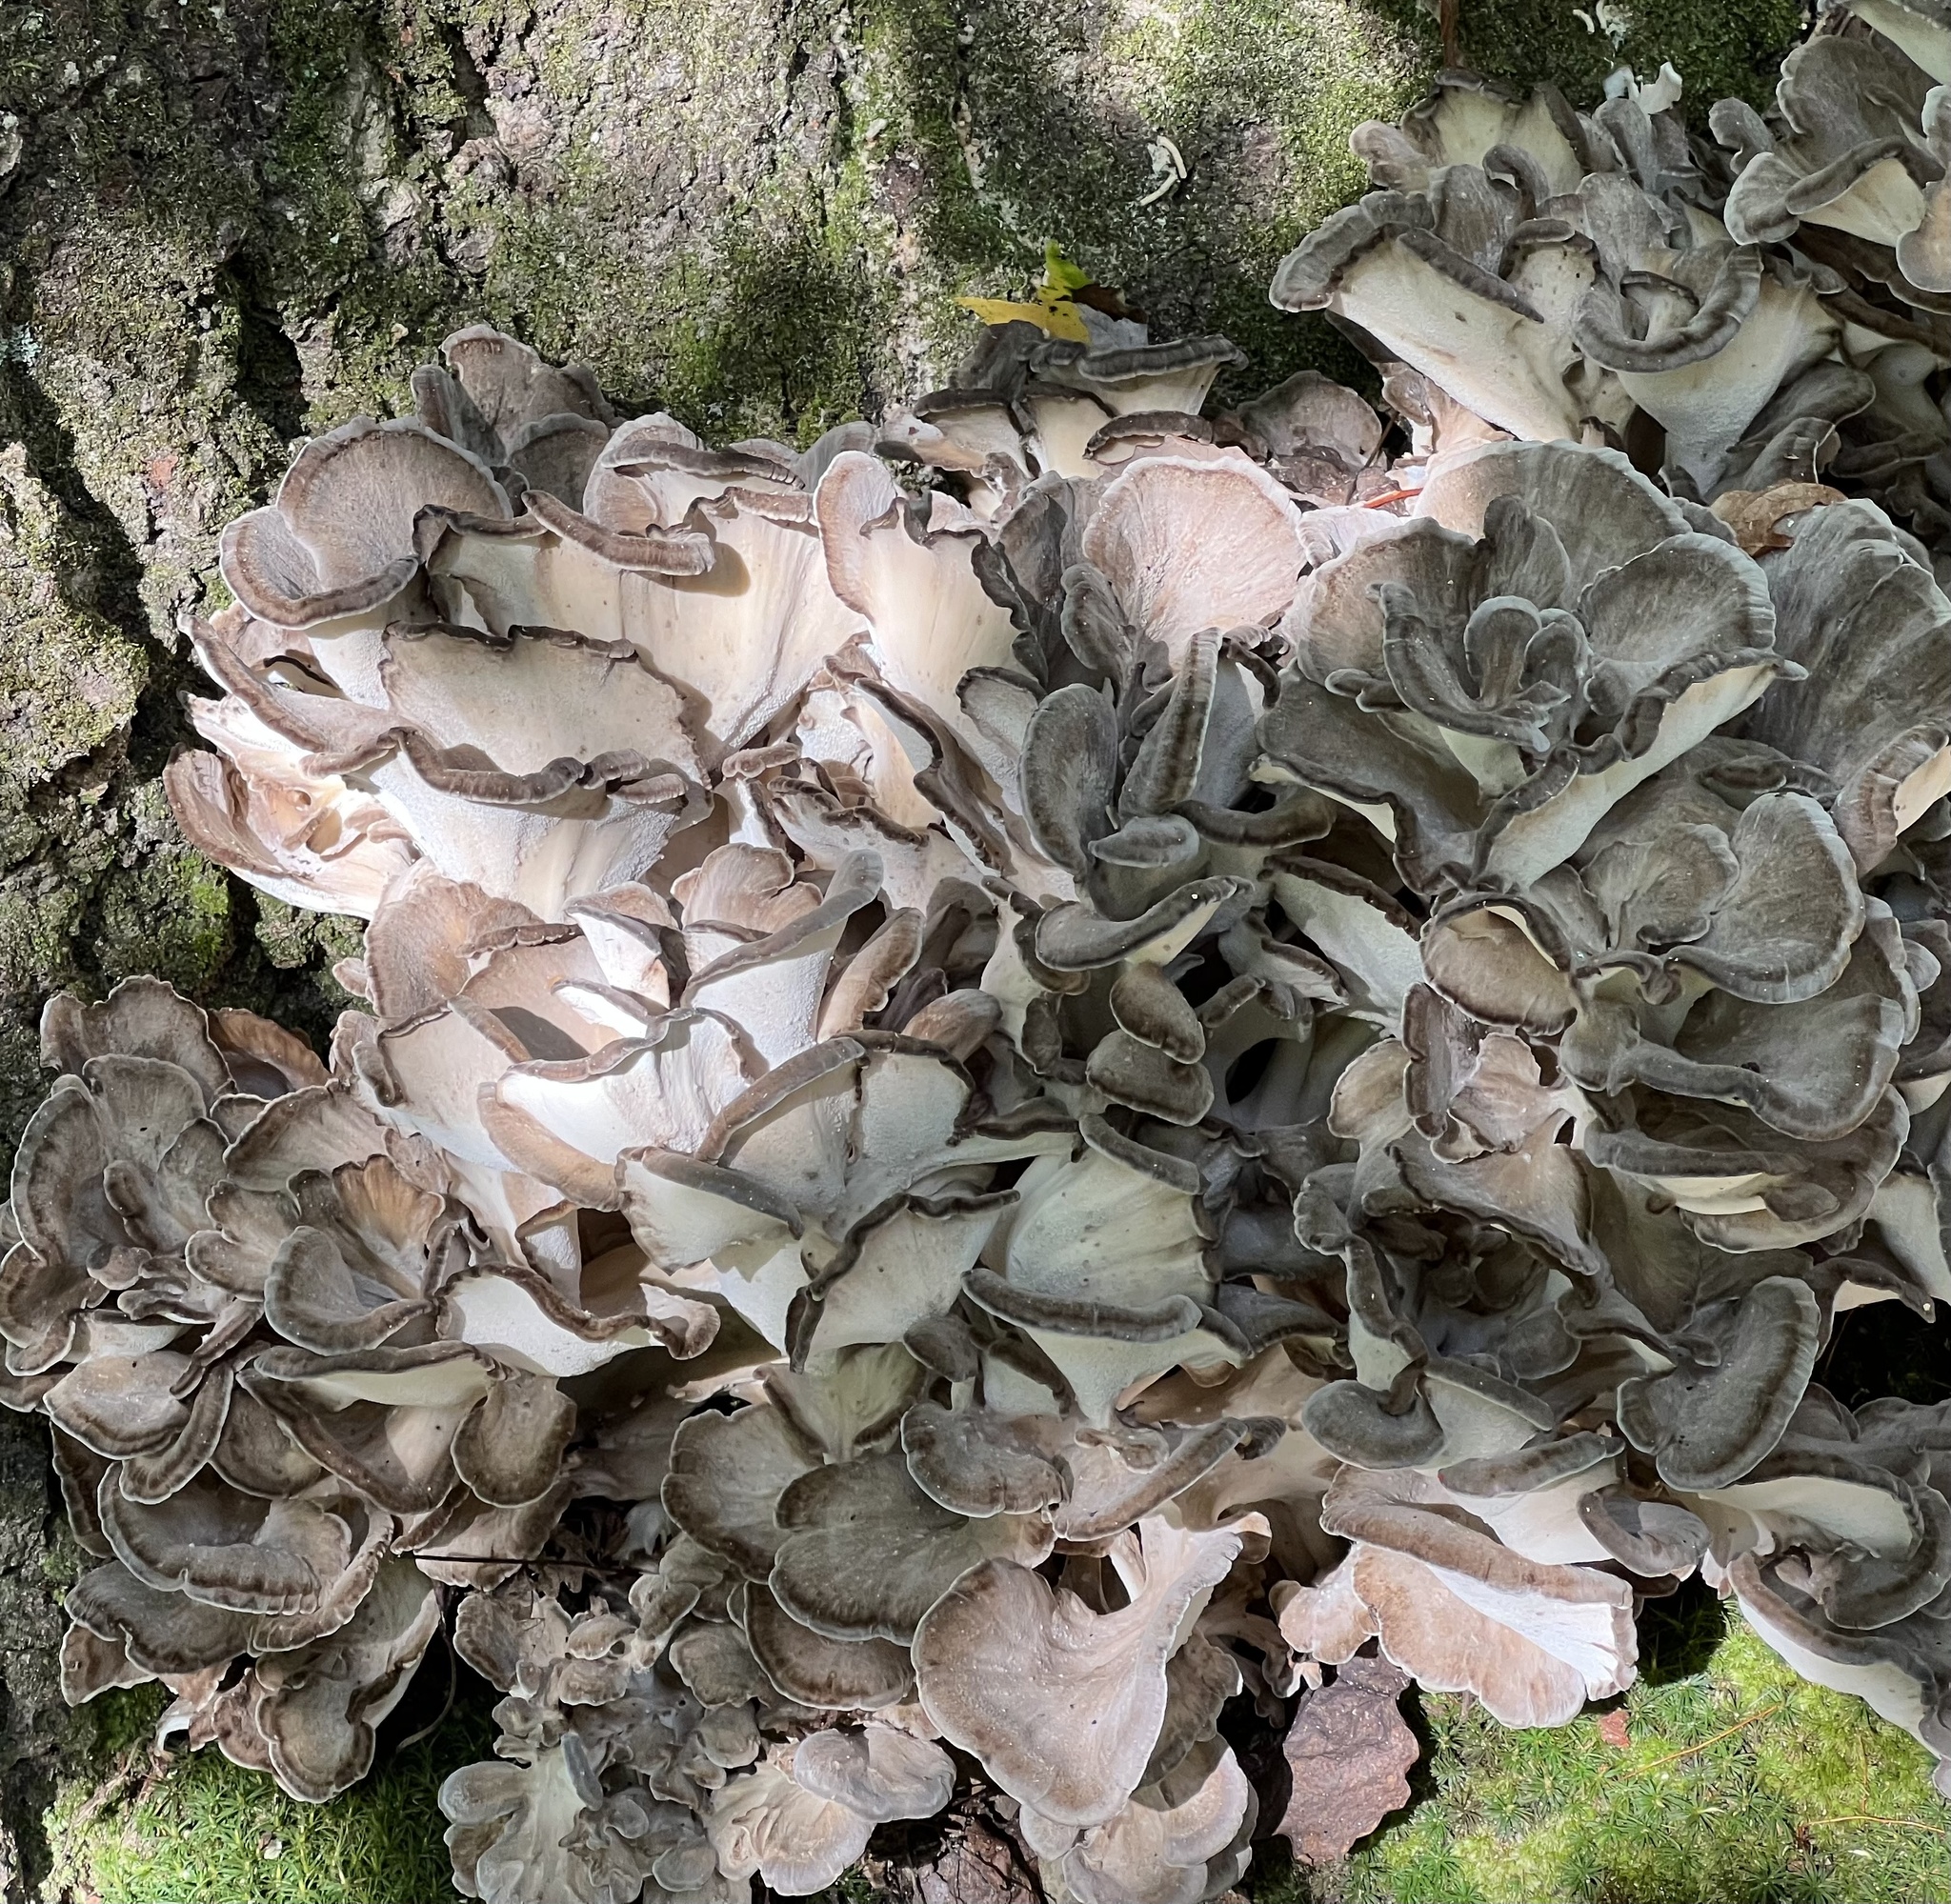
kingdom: Fungi
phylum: Basidiomycota
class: Agaricomycetes
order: Polyporales
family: Grifolaceae
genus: Grifola
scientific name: Grifola frondosa
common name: Hen of the woods
